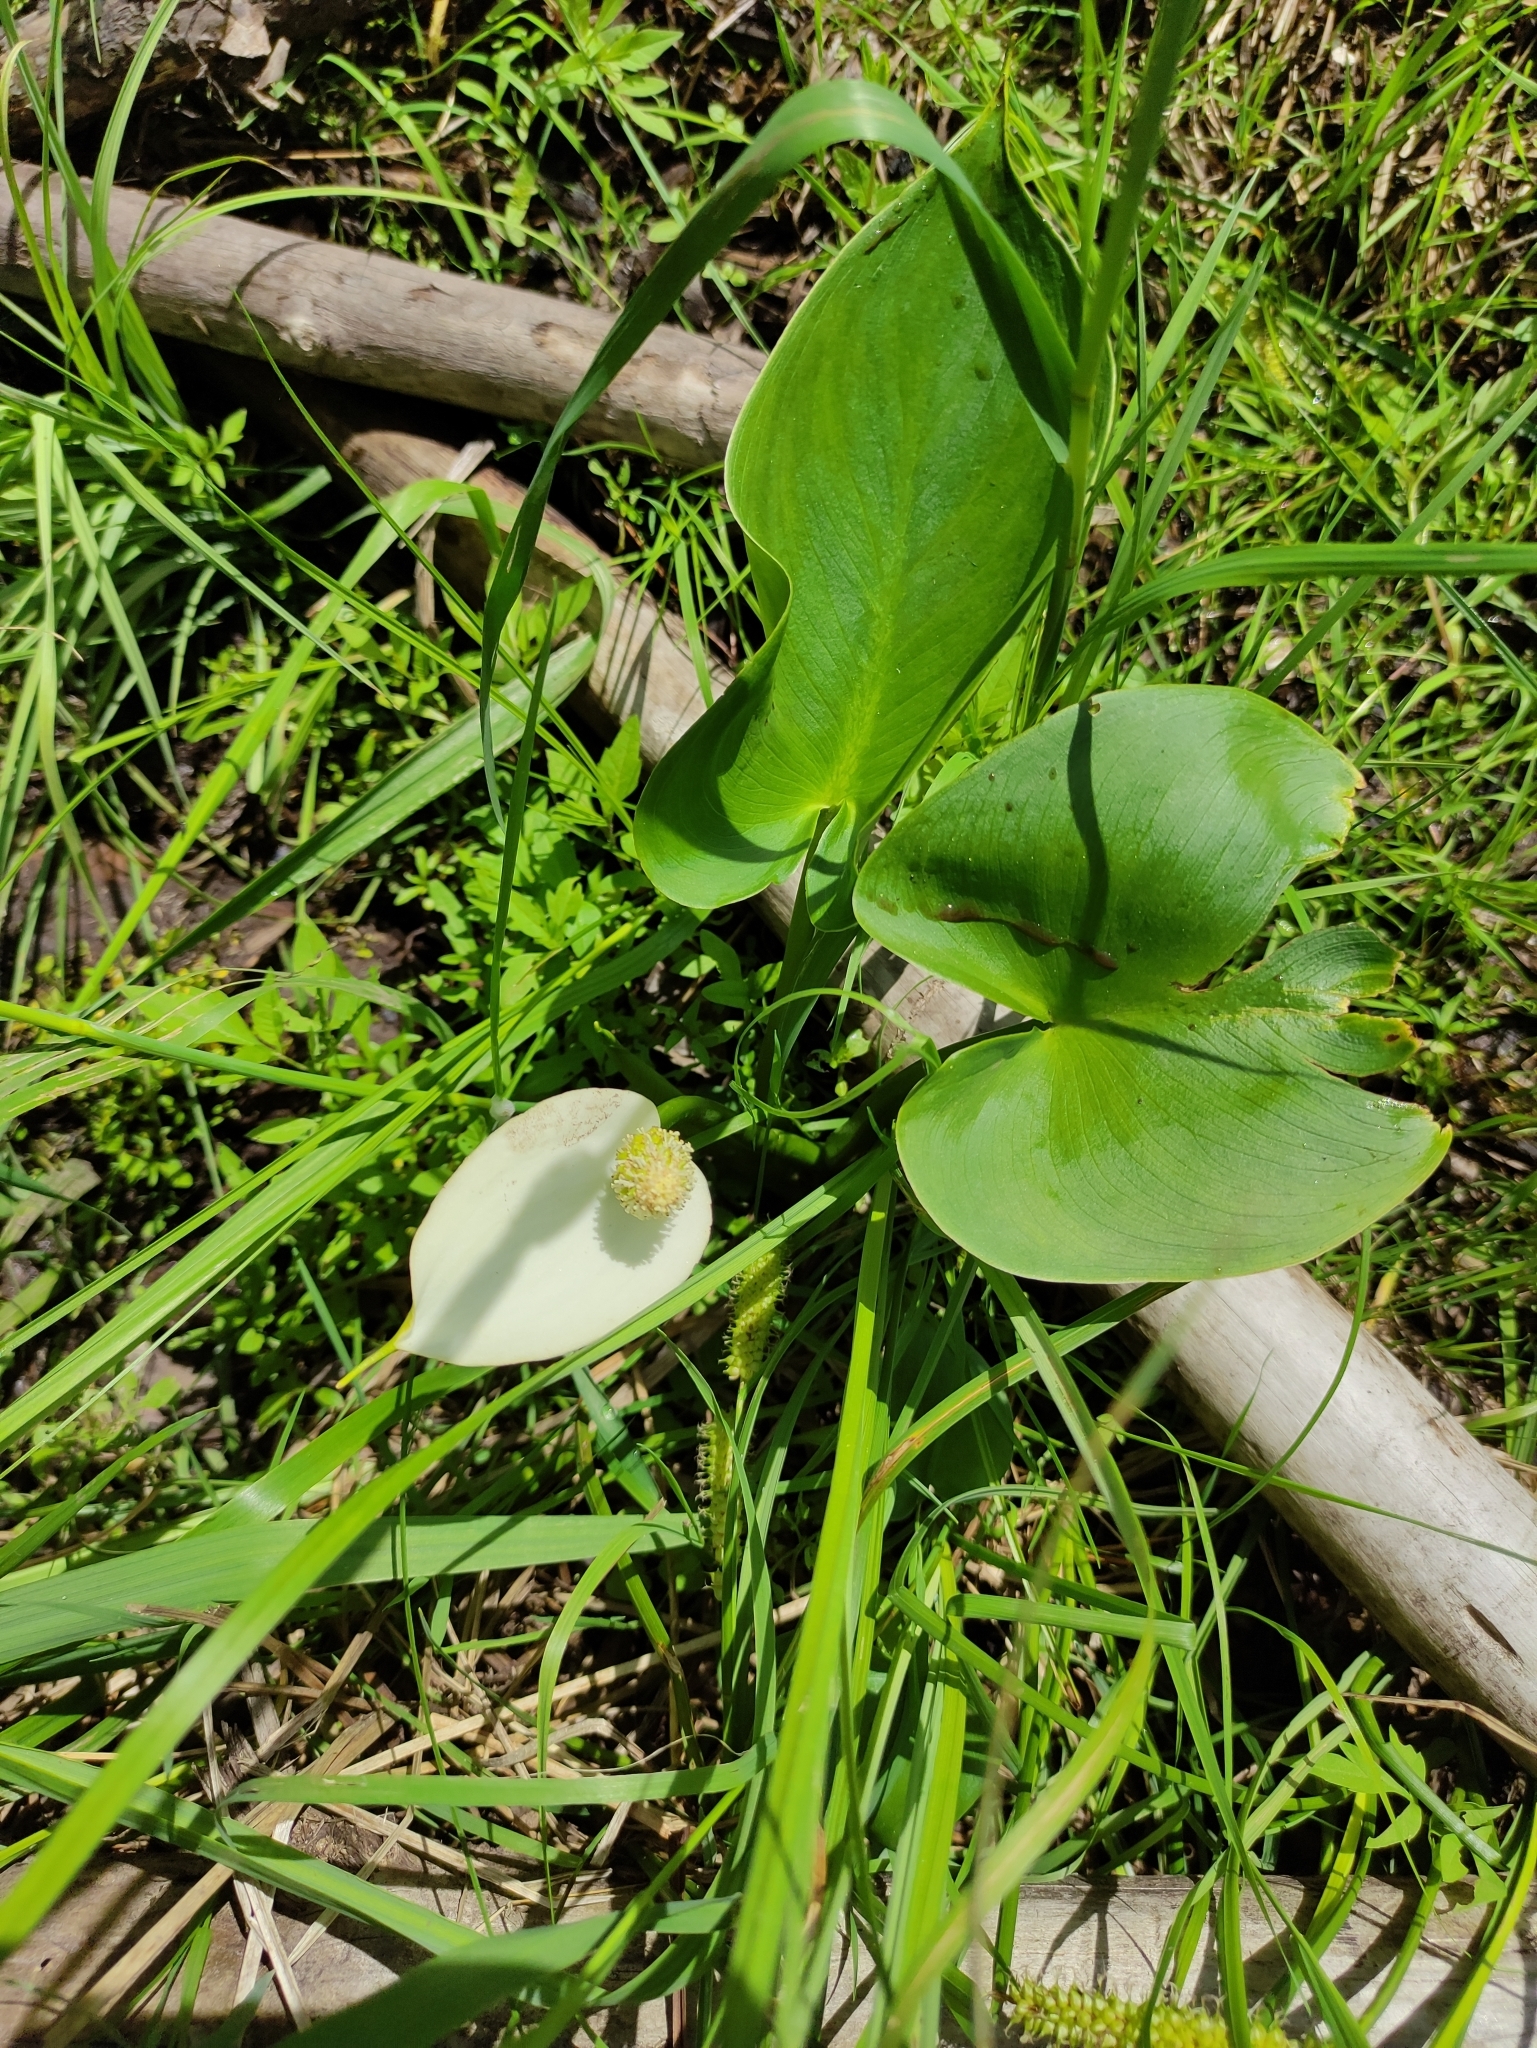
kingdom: Plantae
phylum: Tracheophyta
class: Liliopsida
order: Alismatales
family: Araceae
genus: Calla
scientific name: Calla palustris
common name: Bog arum
